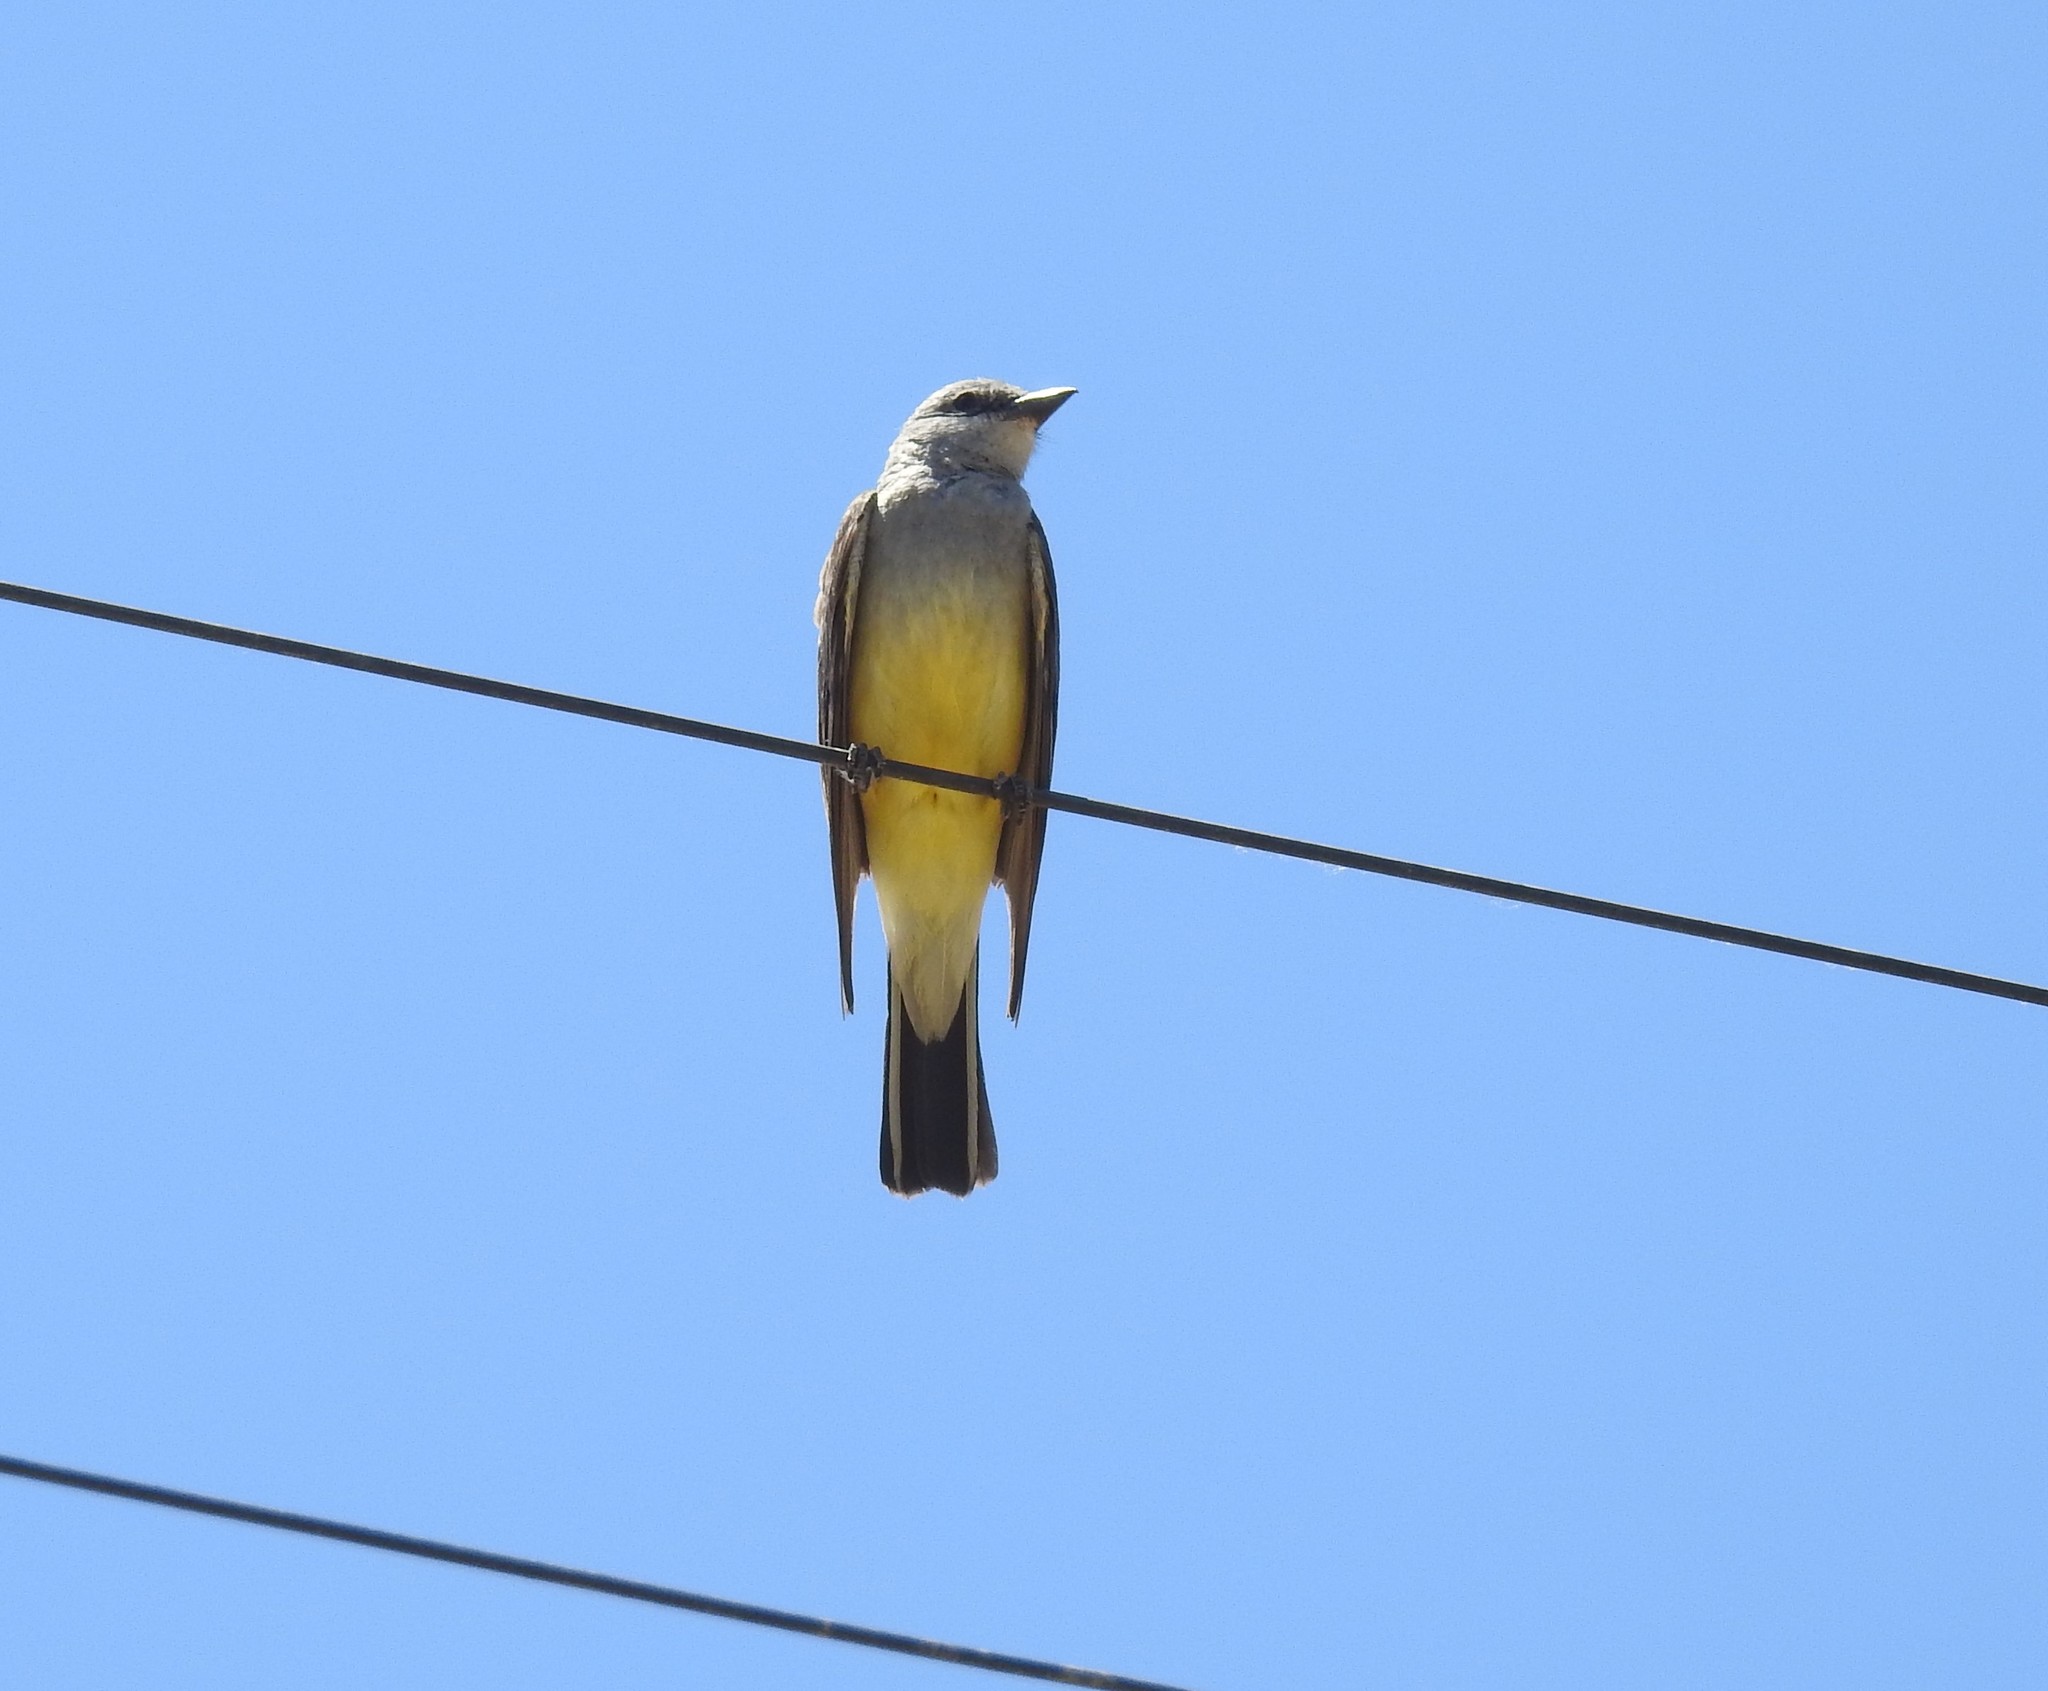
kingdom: Animalia
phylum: Chordata
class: Aves
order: Passeriformes
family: Tyrannidae
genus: Tyrannus
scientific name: Tyrannus verticalis
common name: Western kingbird
